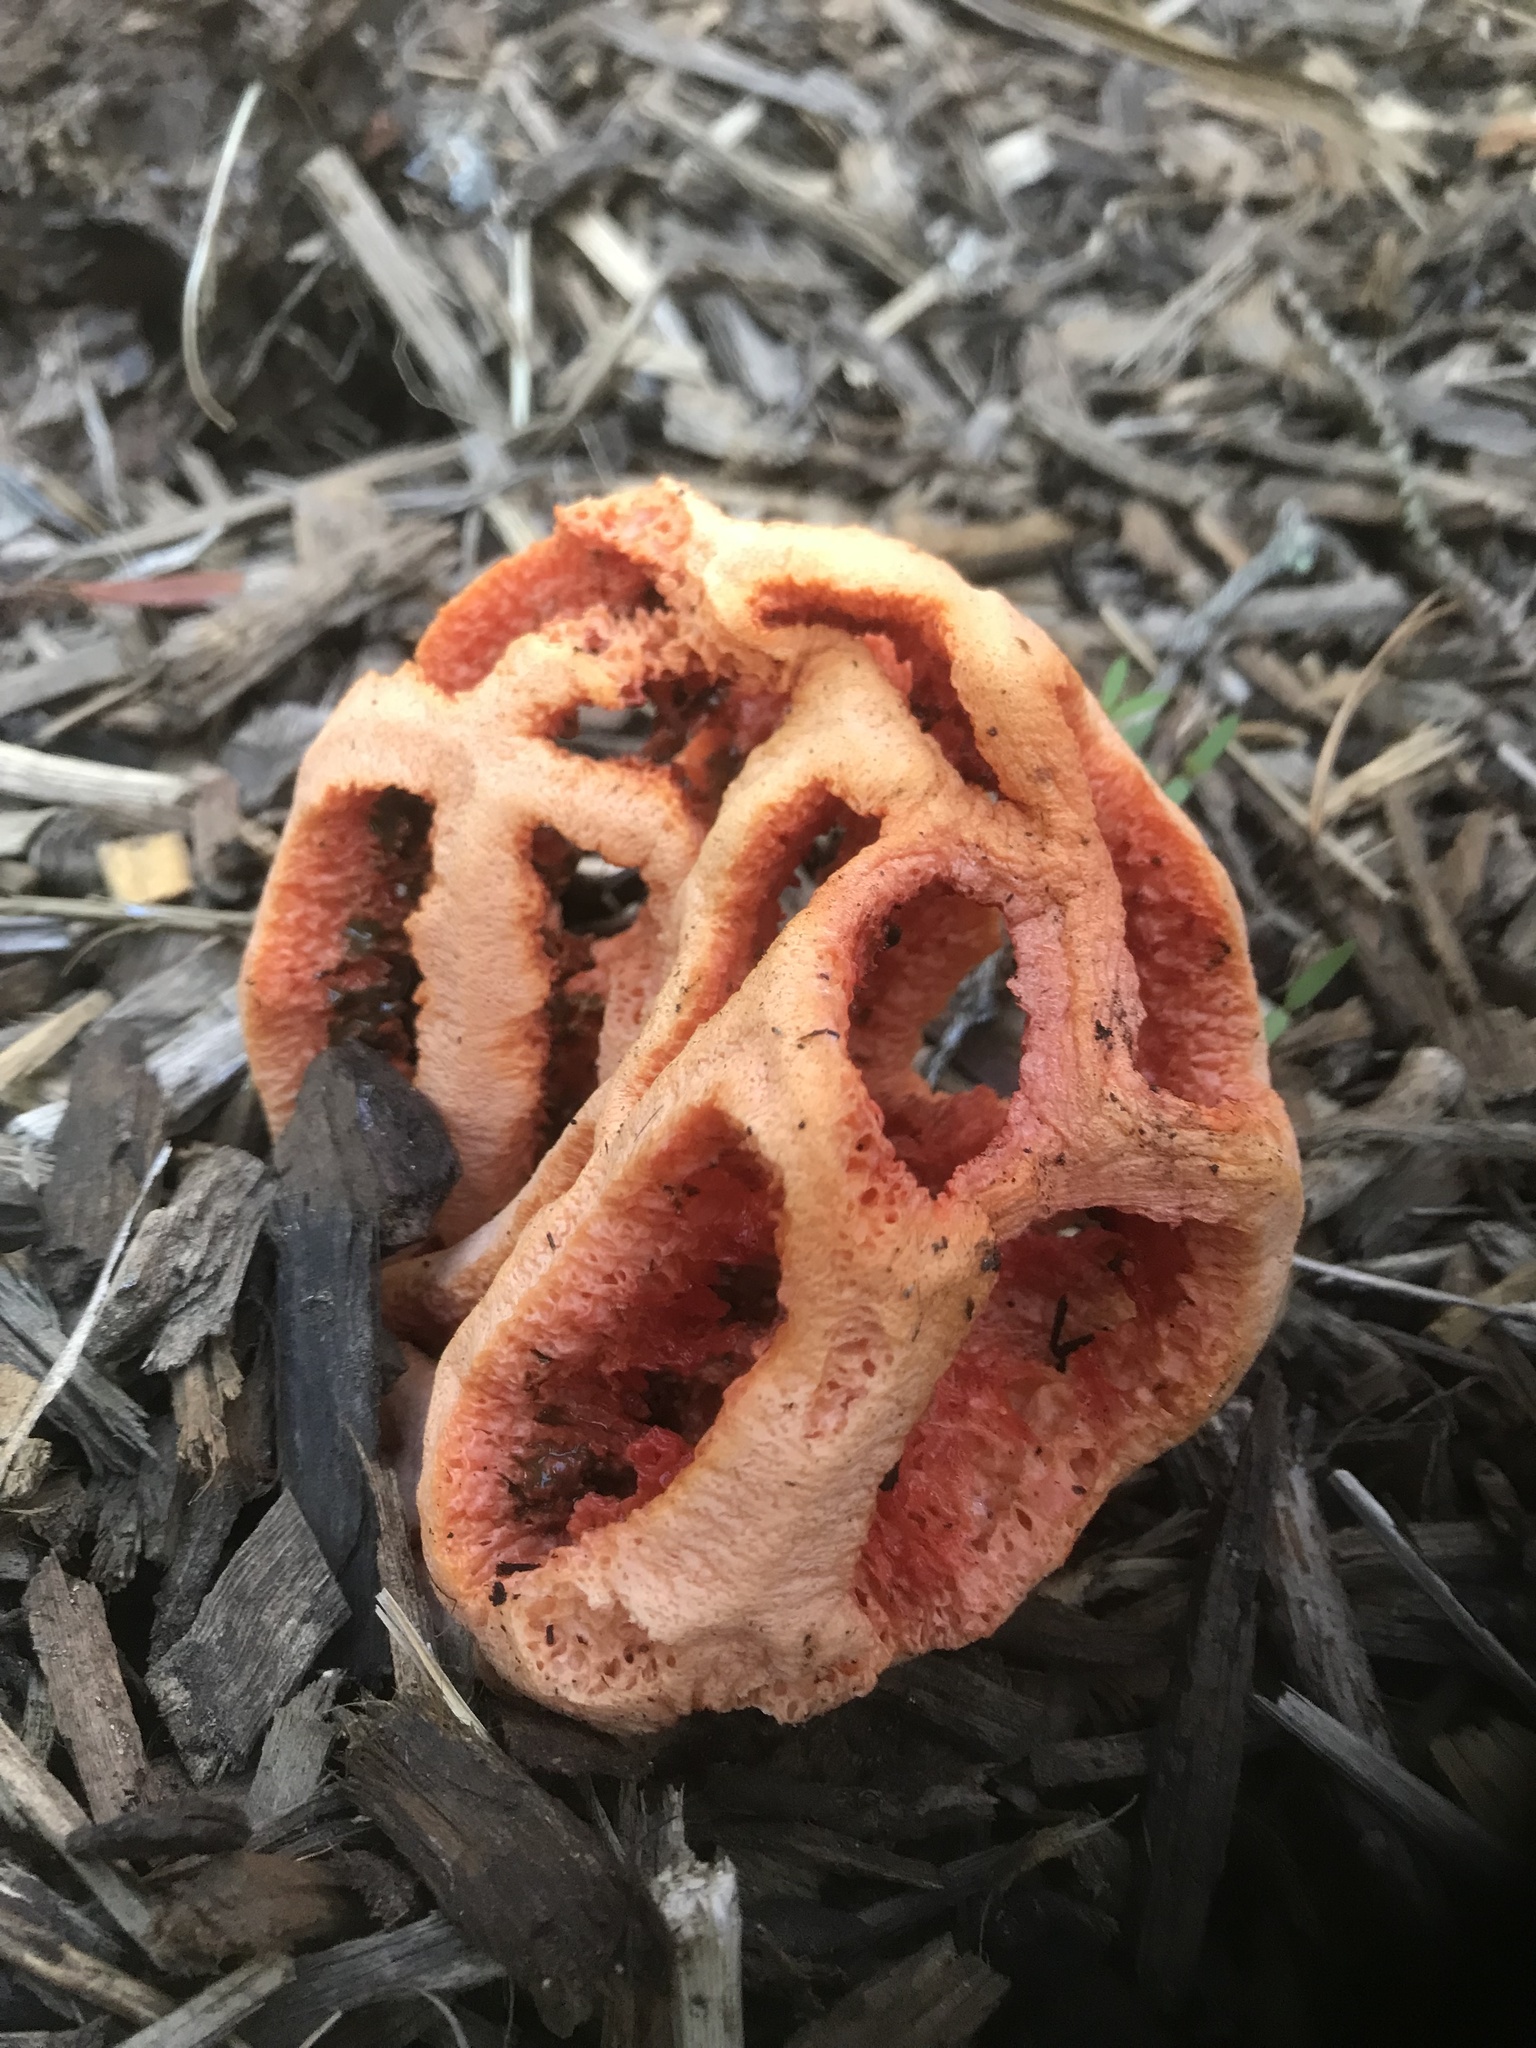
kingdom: Fungi
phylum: Basidiomycota
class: Agaricomycetes
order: Phallales
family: Phallaceae
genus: Clathrus
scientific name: Clathrus ruber
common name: Red cage
